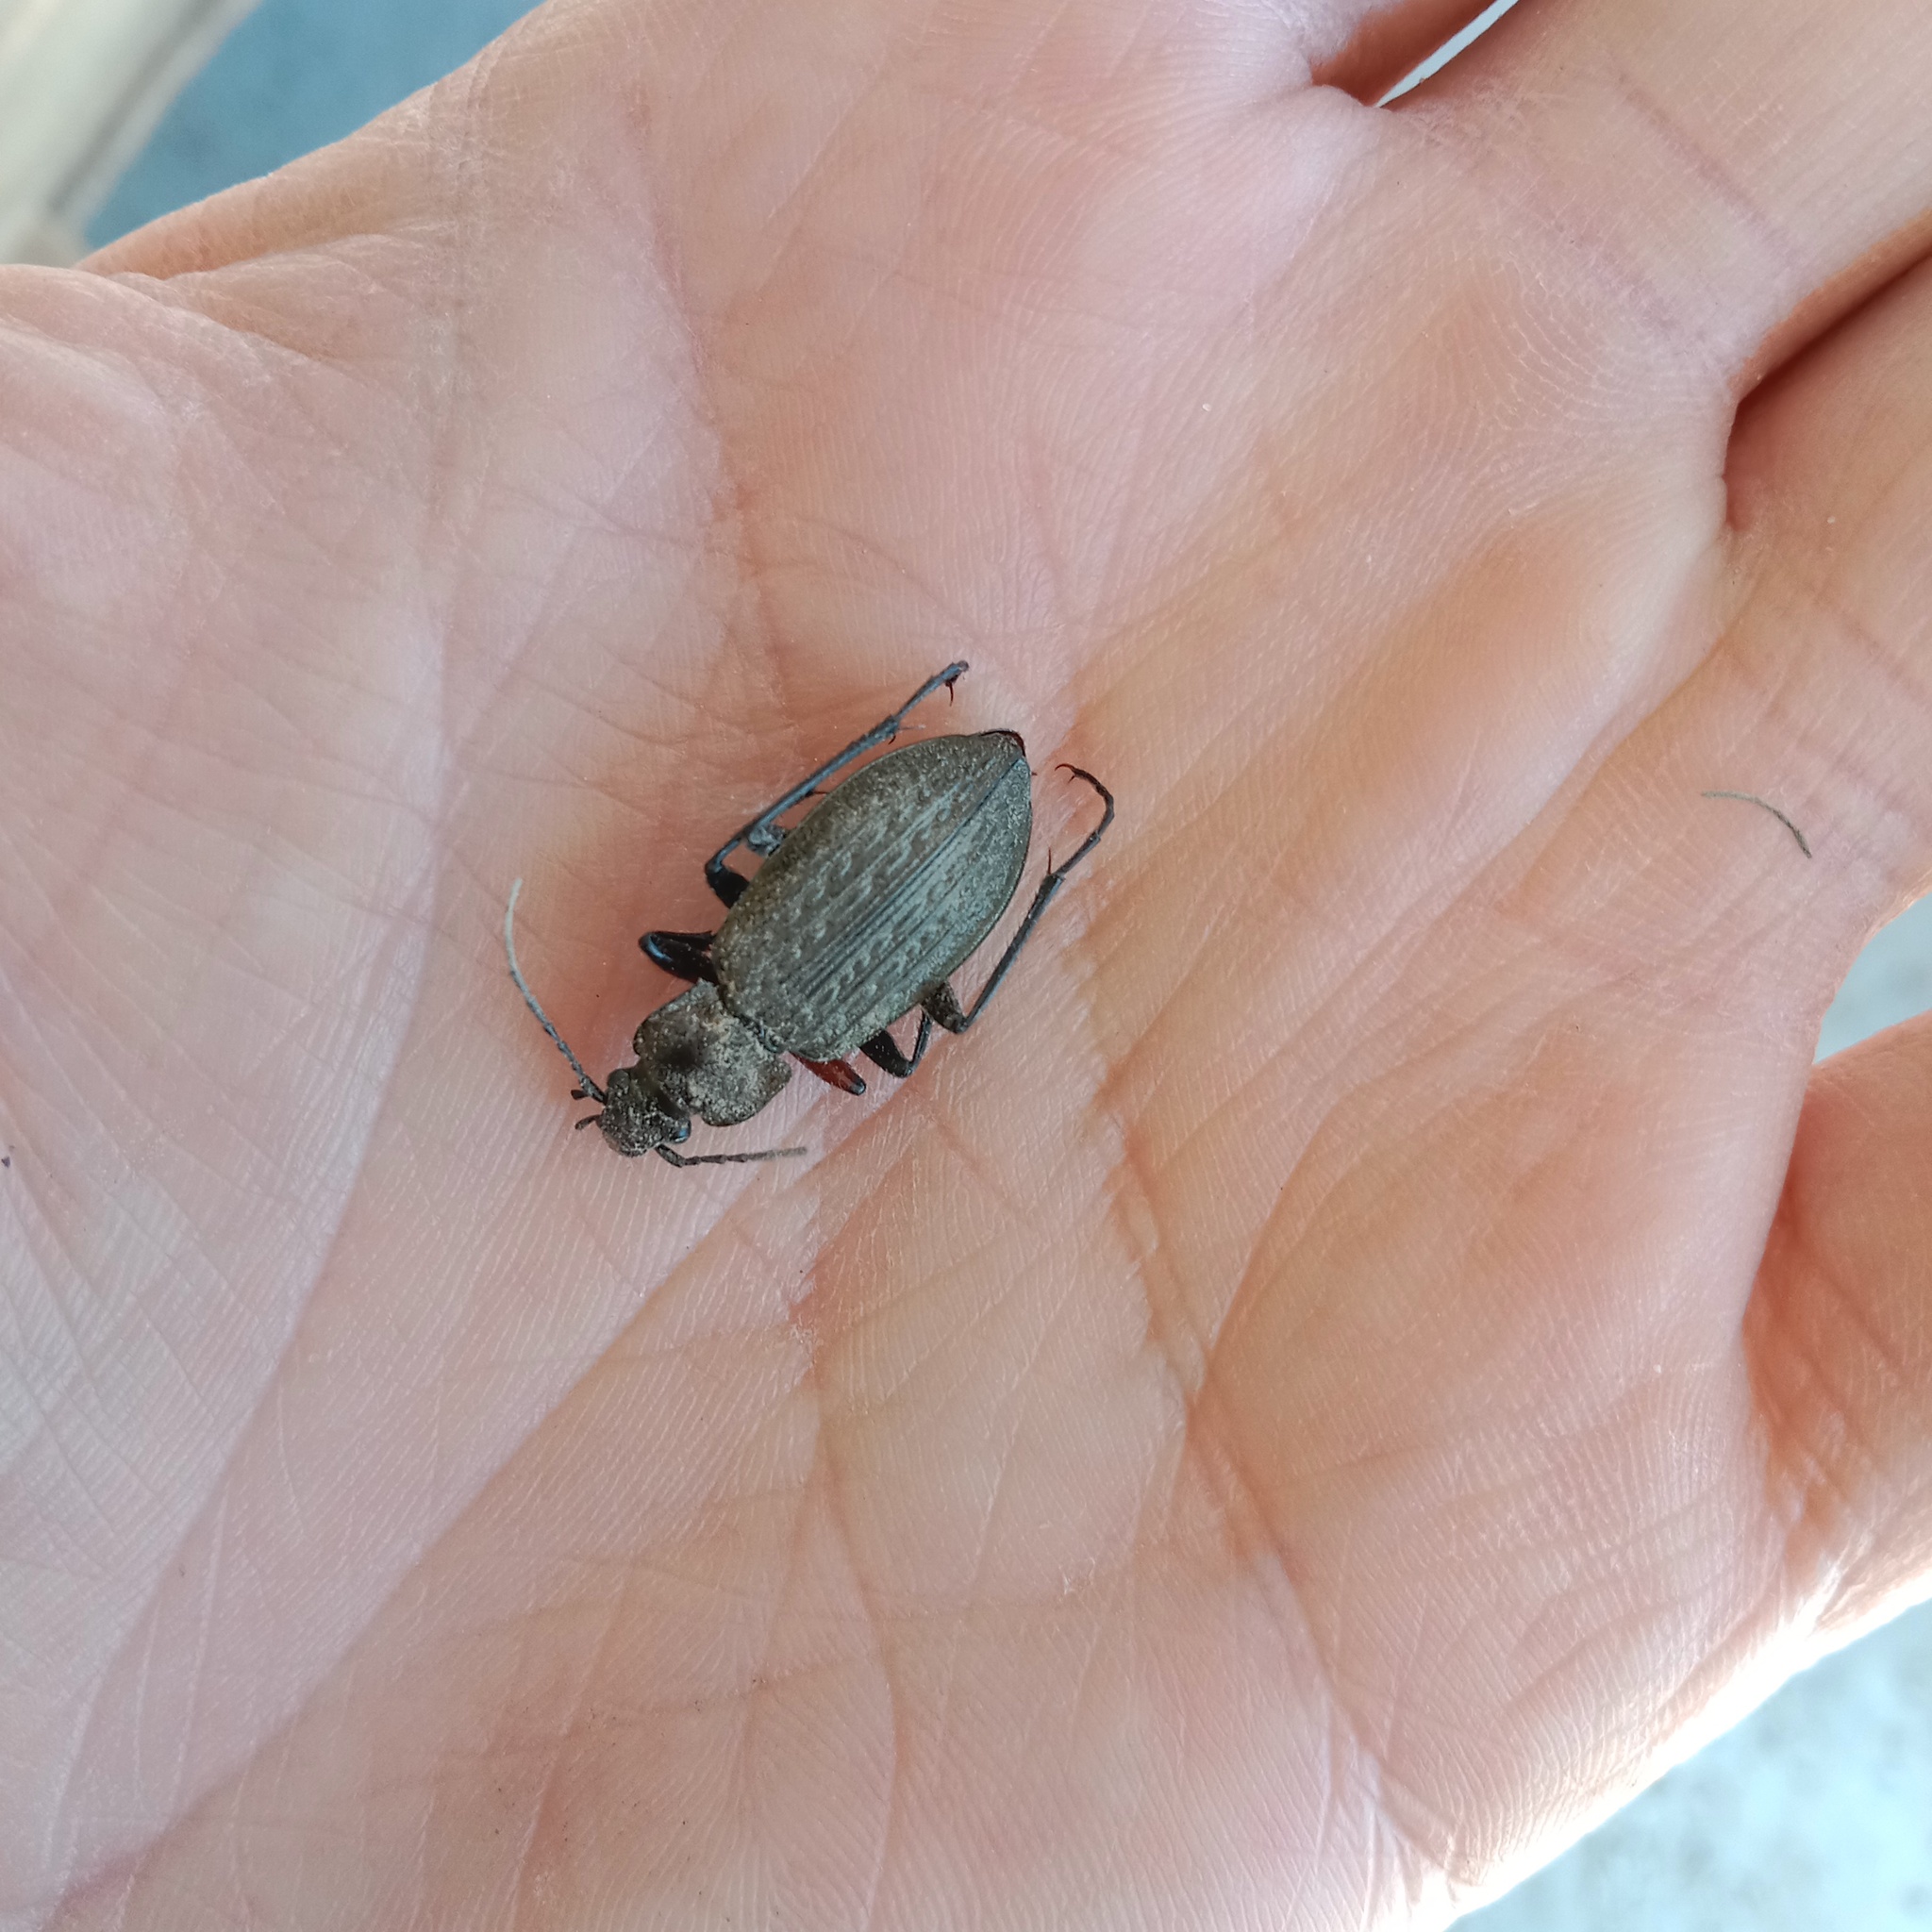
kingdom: Animalia
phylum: Arthropoda
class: Insecta
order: Coleoptera
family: Carabidae
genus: Carabus
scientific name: Carabus granulatus
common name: Granulate ground beetle
